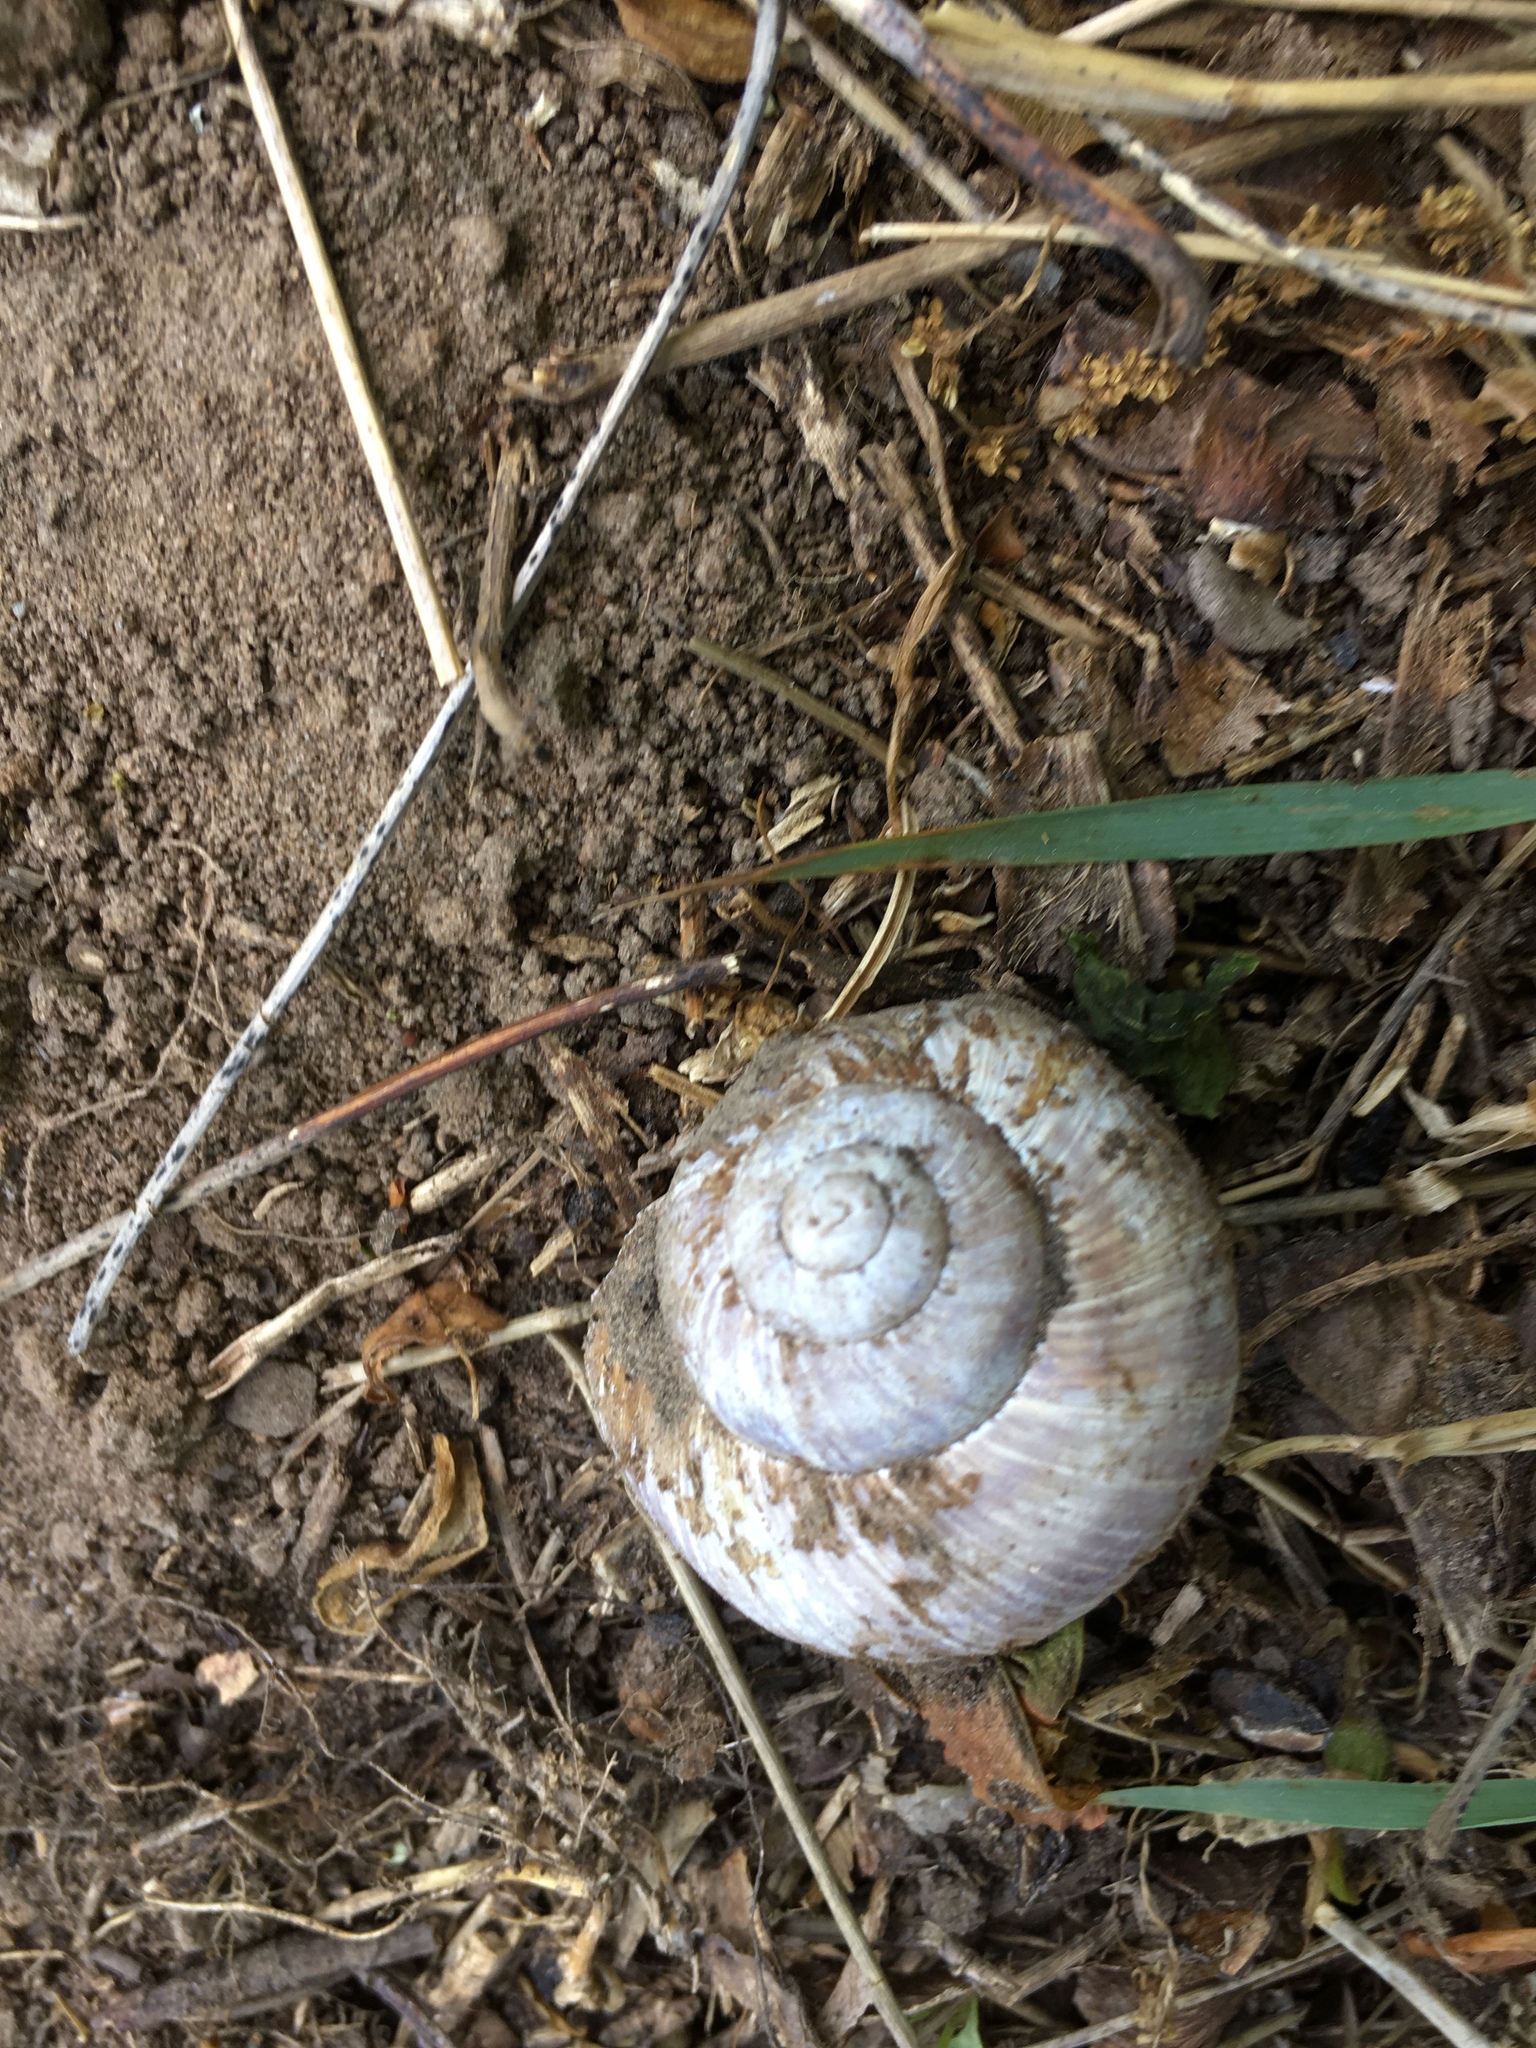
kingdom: Animalia
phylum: Mollusca
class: Gastropoda
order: Stylommatophora
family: Helicidae
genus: Helix
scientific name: Helix pomatia
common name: Roman snail
